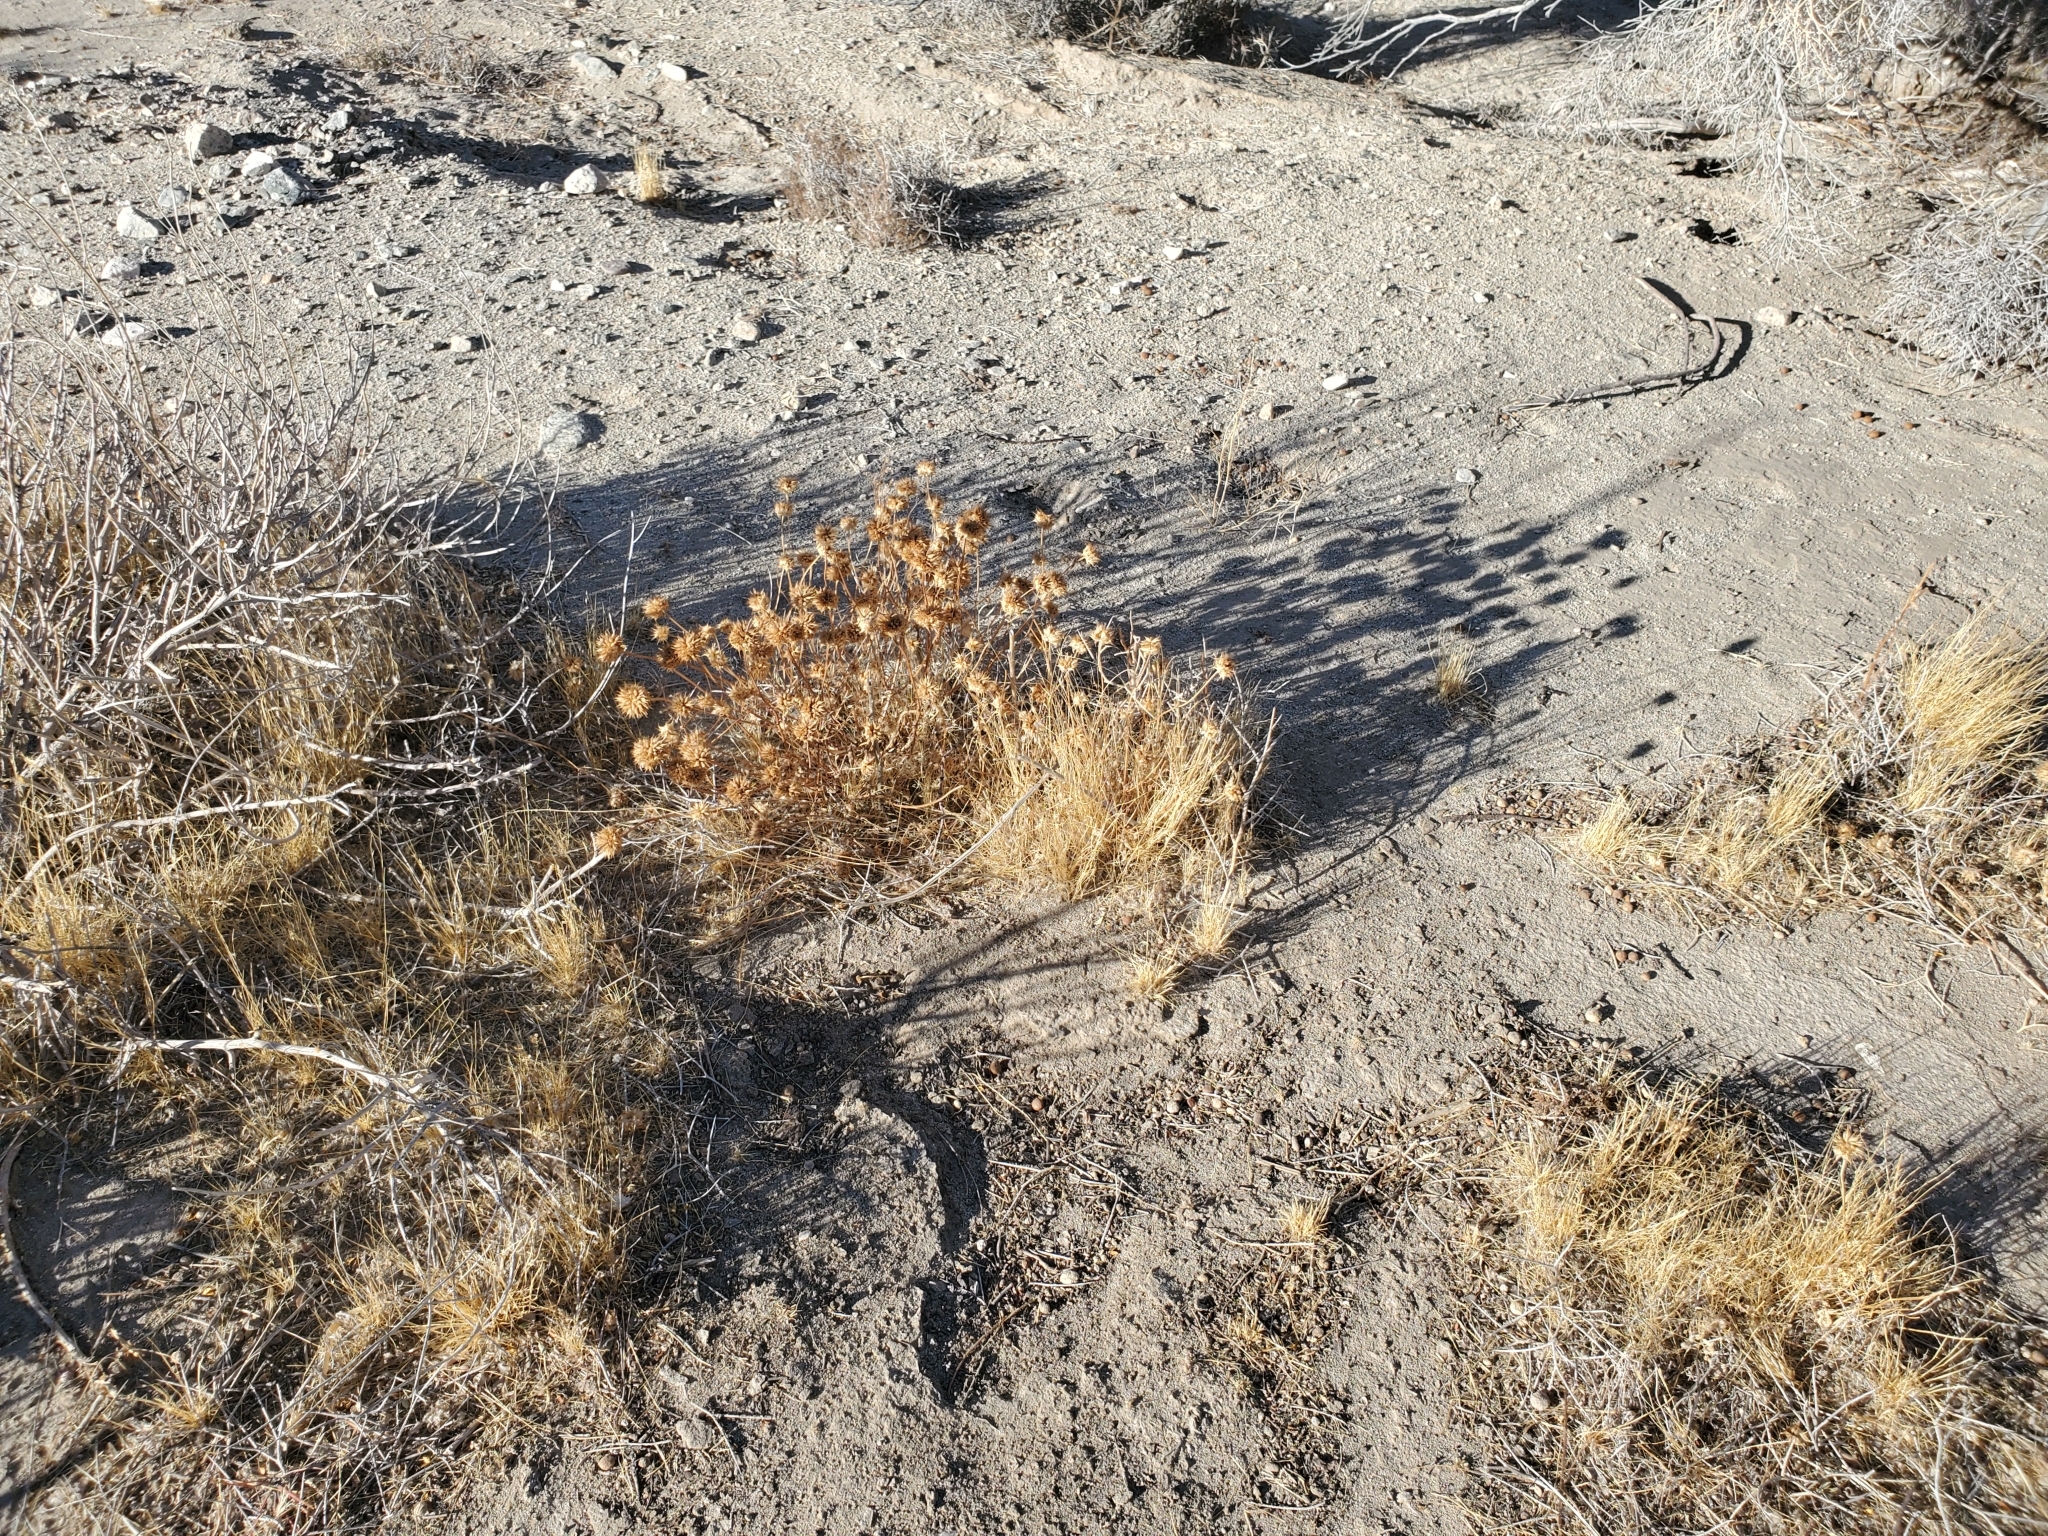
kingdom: Plantae
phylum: Tracheophyta
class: Magnoliopsida
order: Lamiales
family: Lamiaceae
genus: Salvia
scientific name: Salvia columbariae
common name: Chia
